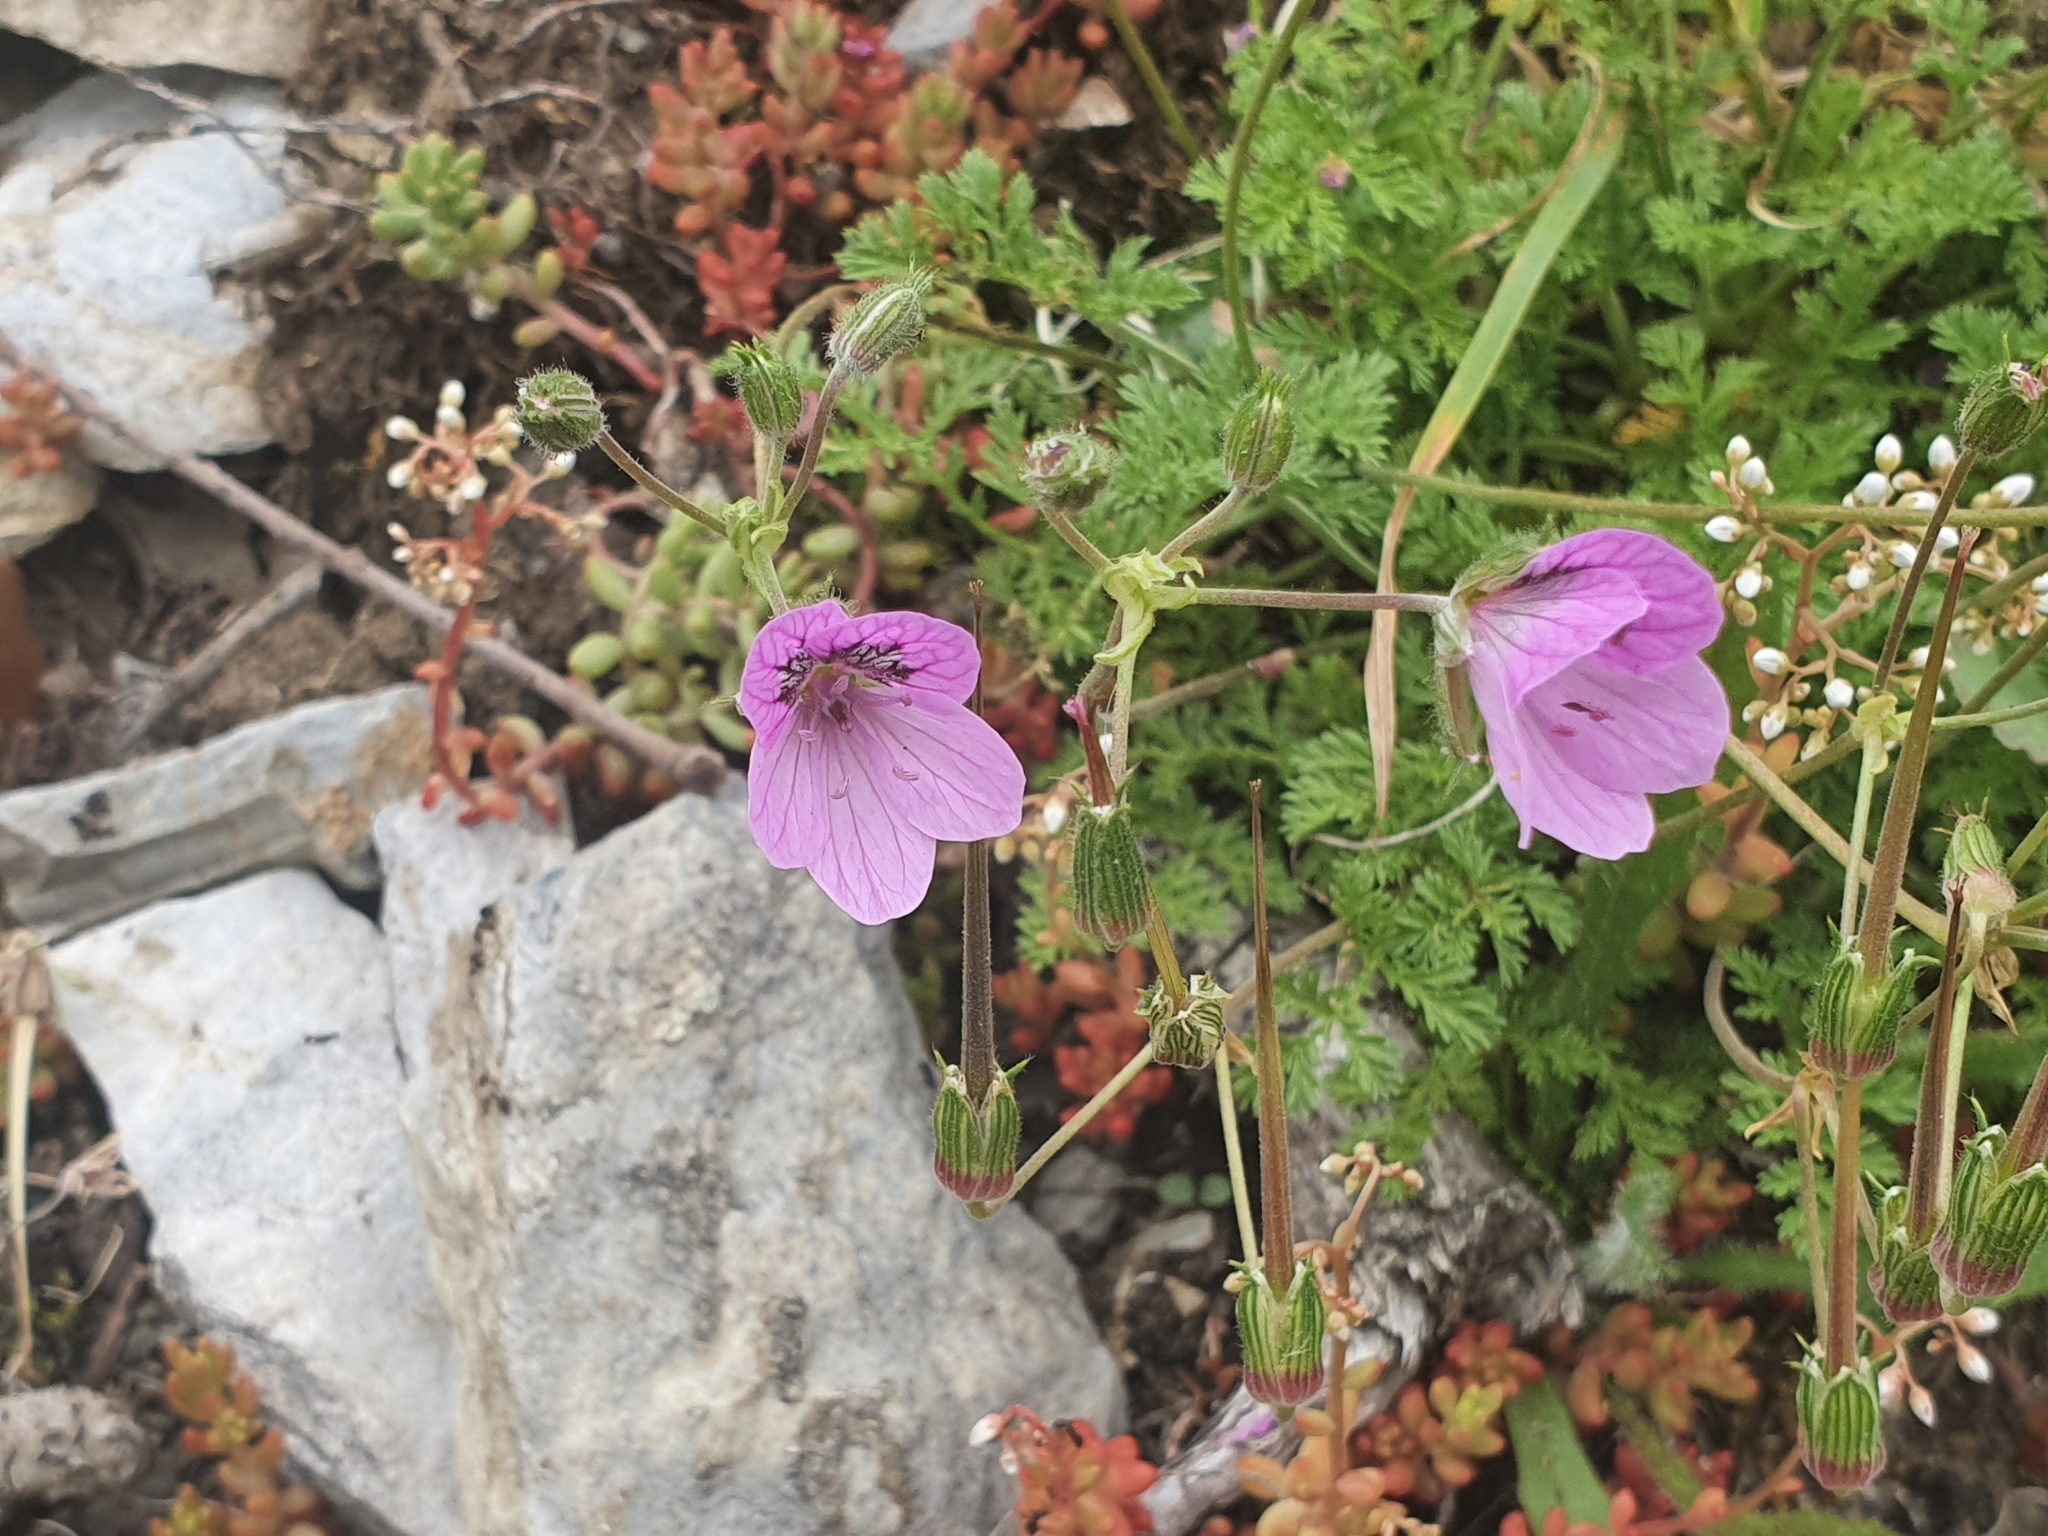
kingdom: Plantae
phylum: Tracheophyta
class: Magnoliopsida
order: Geraniales
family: Geraniaceae
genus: Erodium
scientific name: Erodium glandulosum
